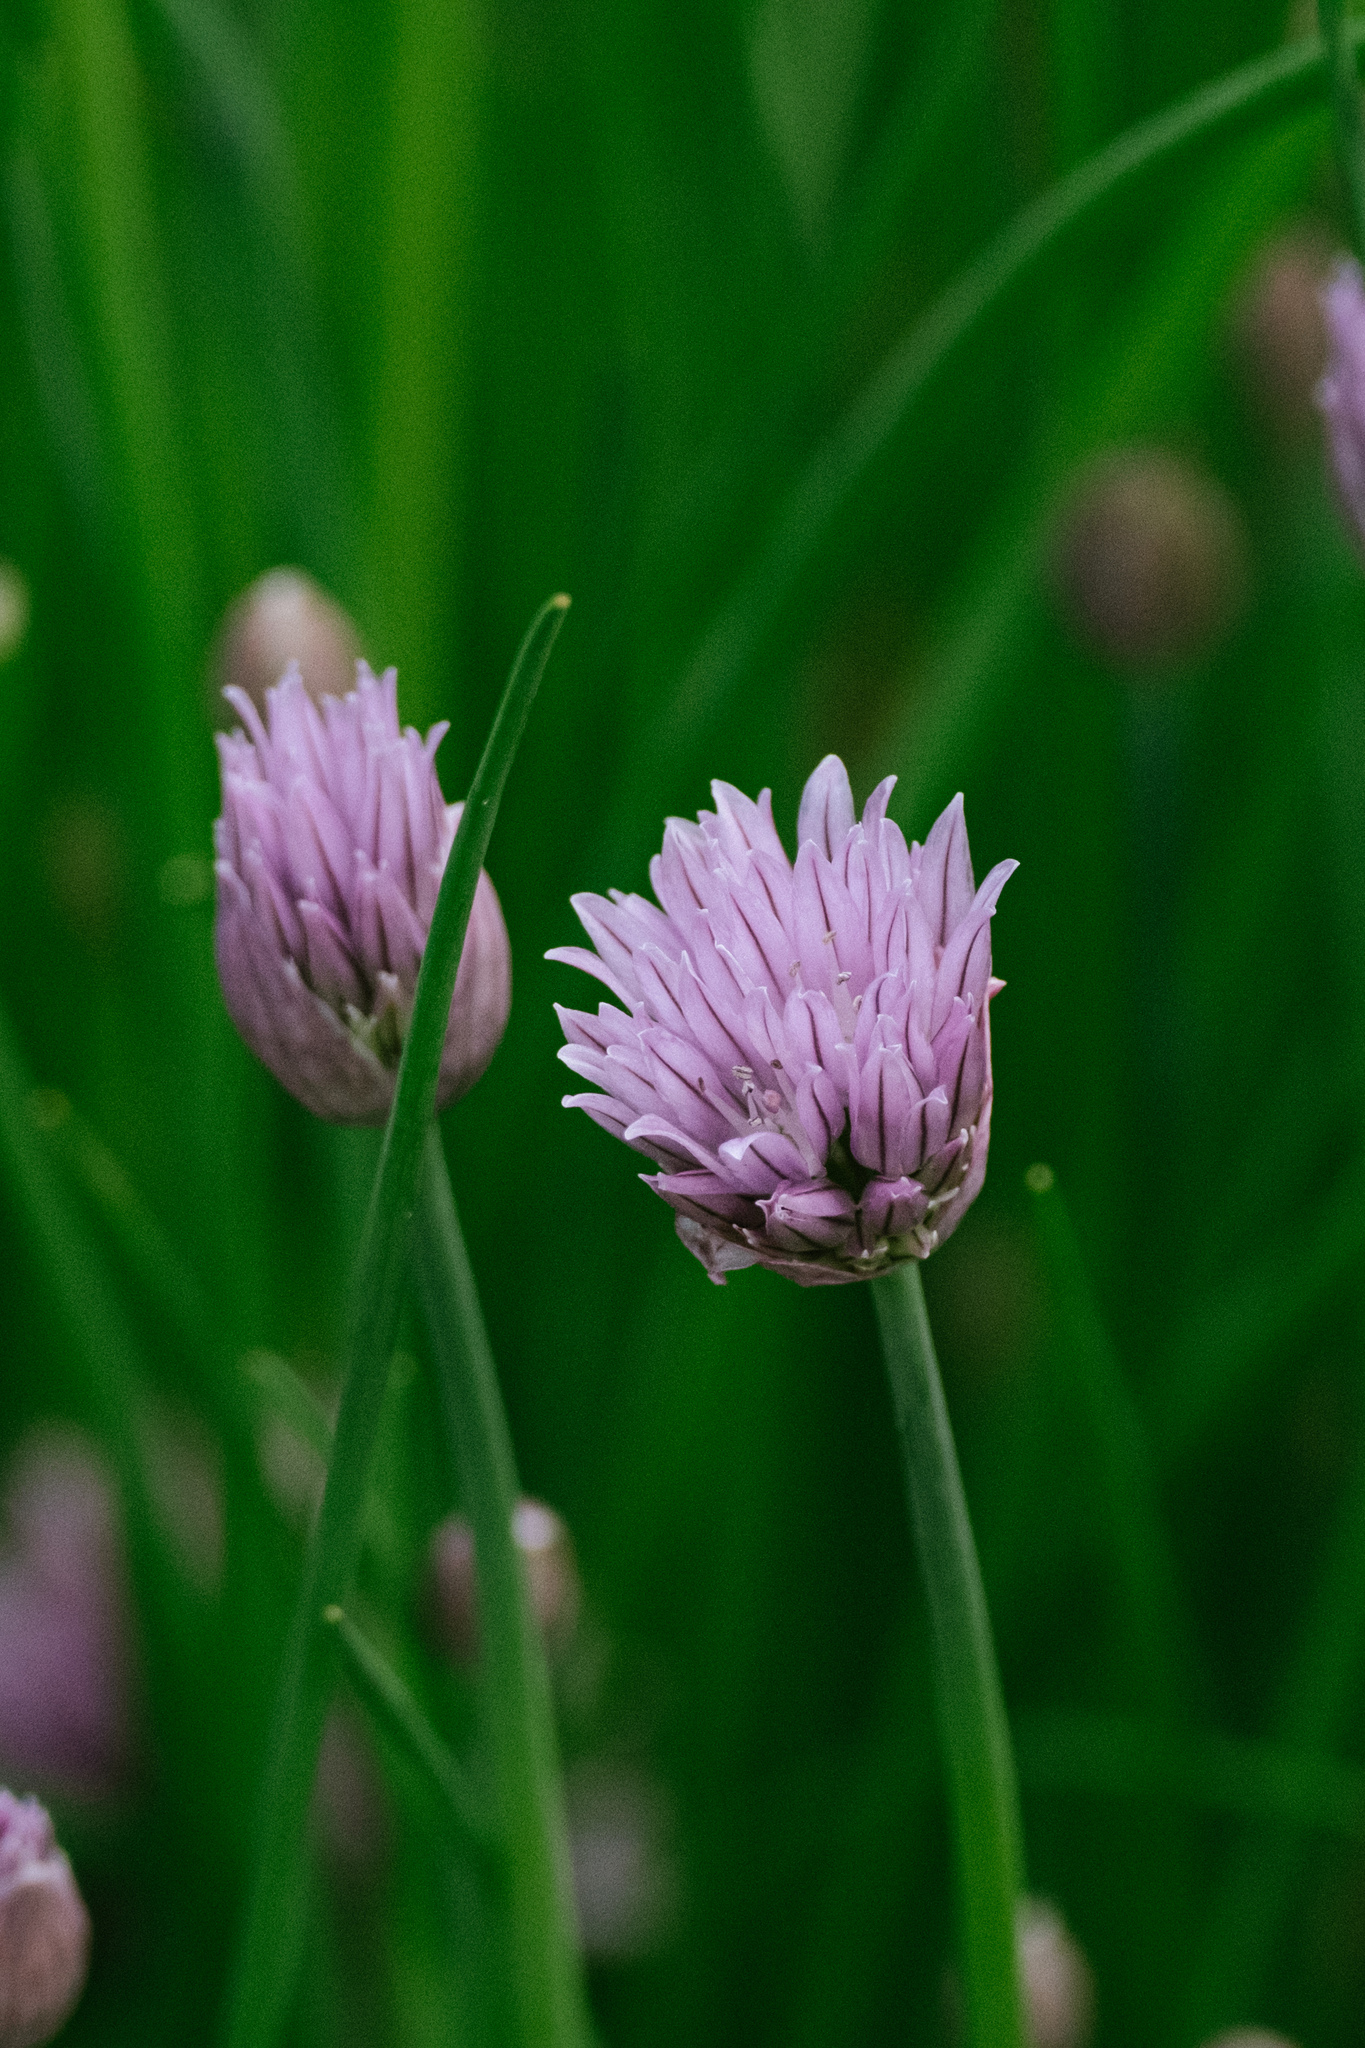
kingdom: Plantae
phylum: Tracheophyta
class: Liliopsida
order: Asparagales
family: Amaryllidaceae
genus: Allium
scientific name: Allium schoenoprasum
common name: Chives
